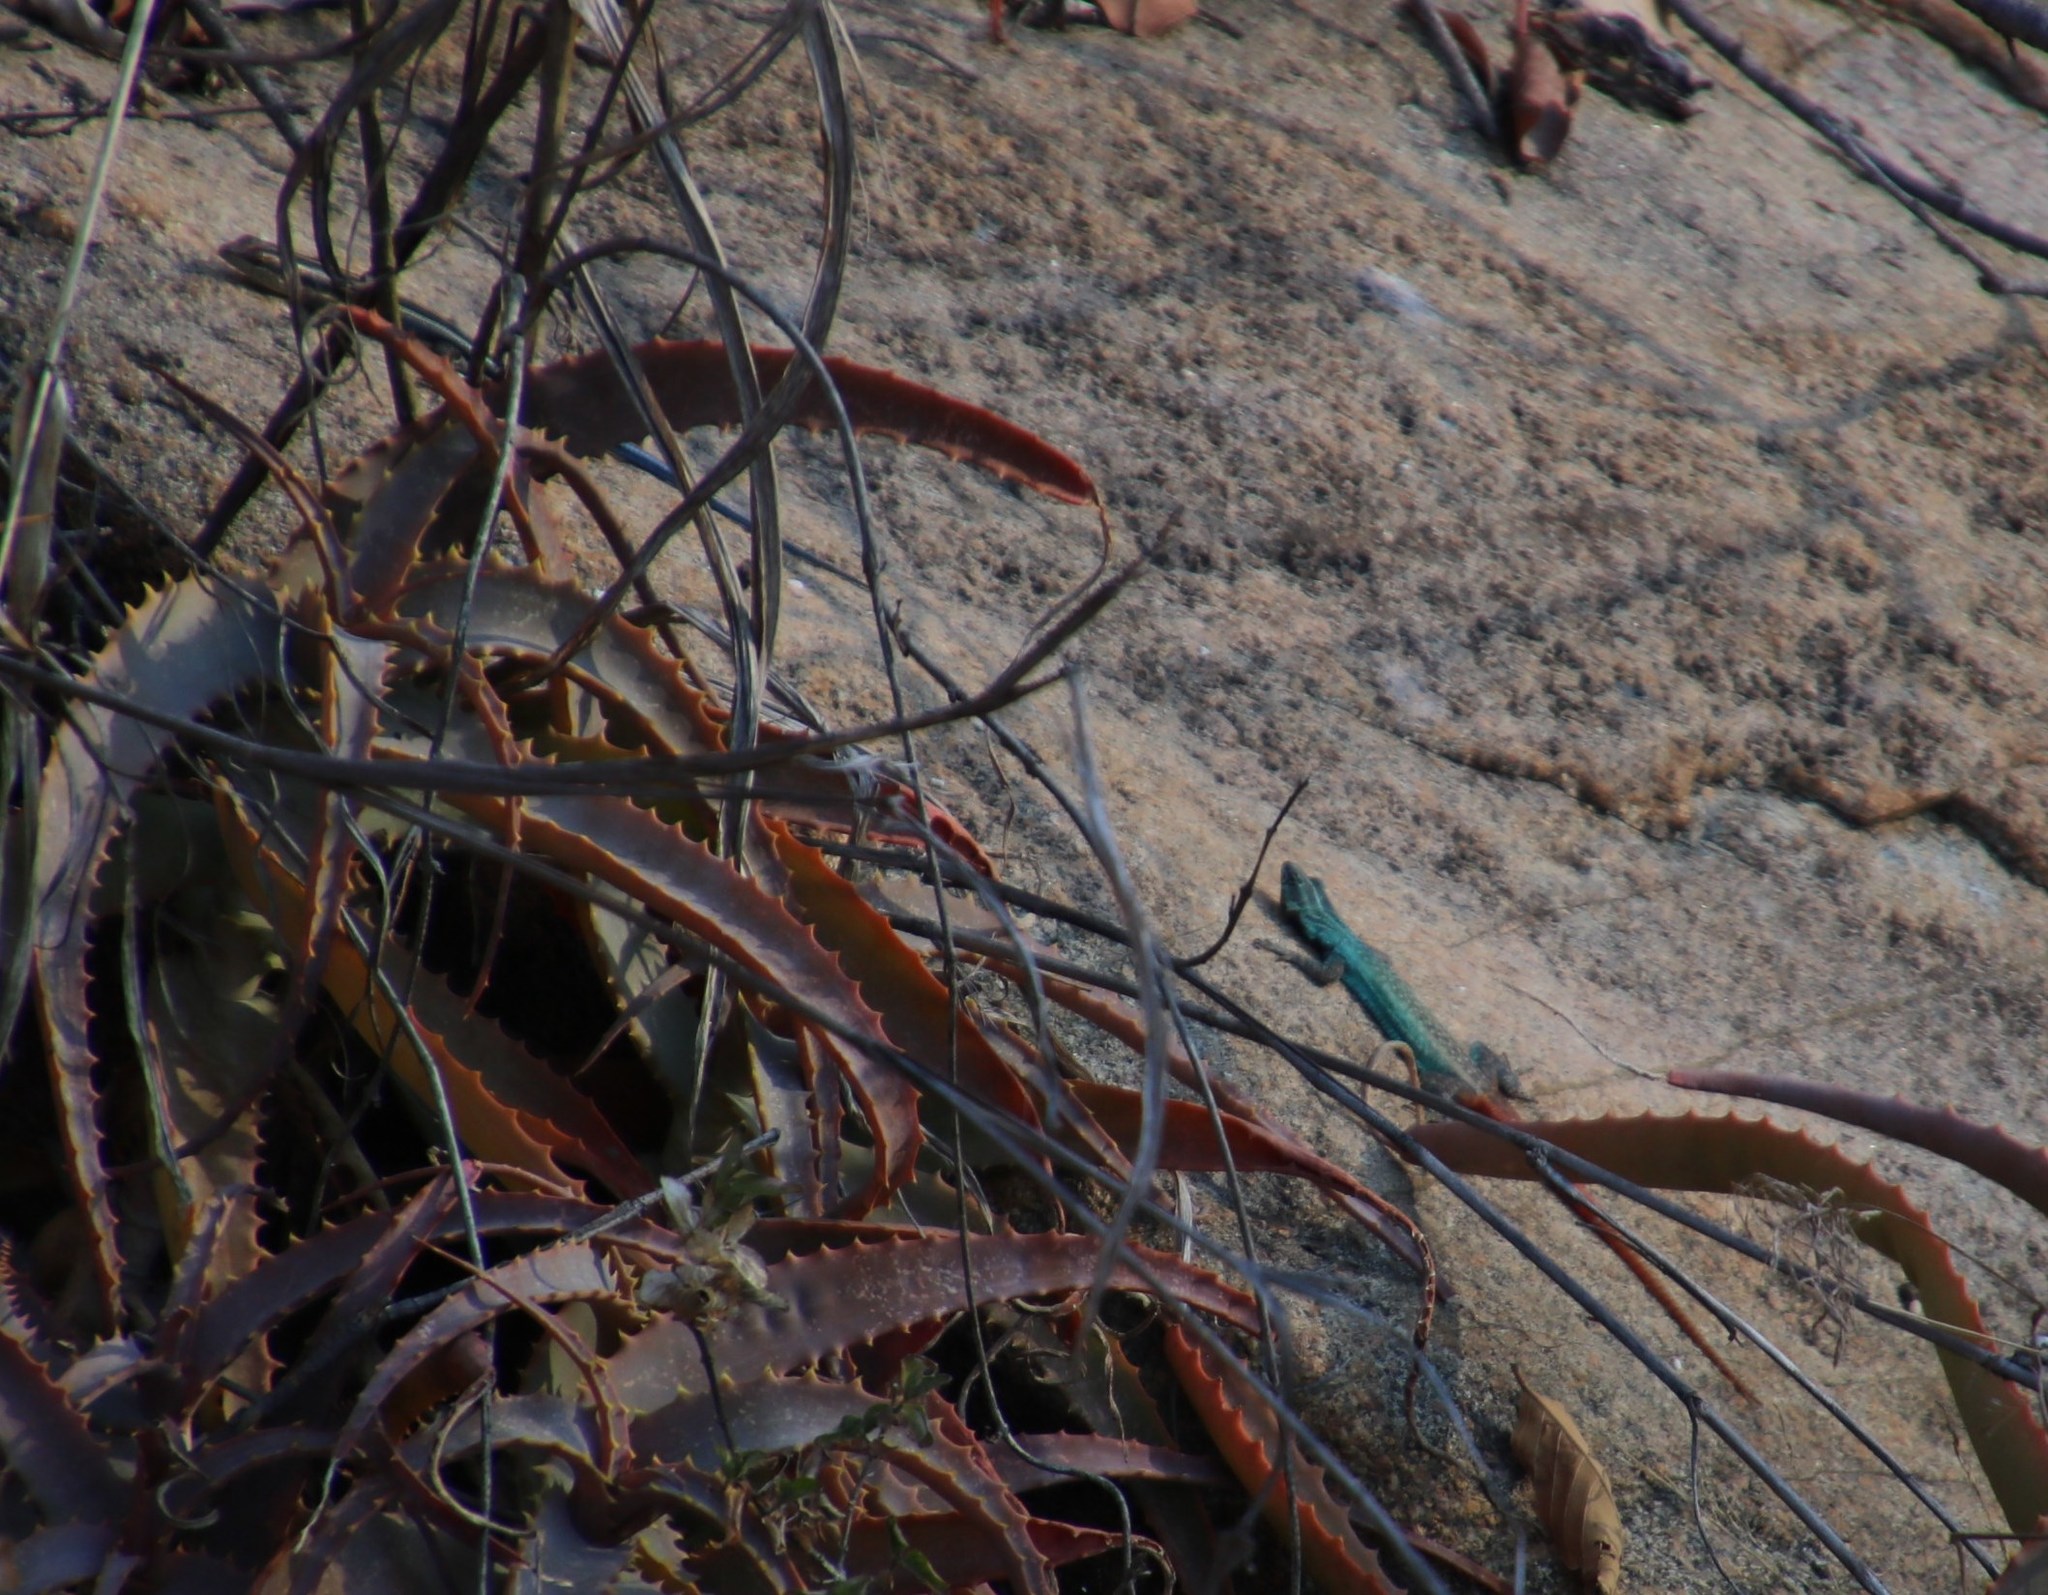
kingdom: Animalia
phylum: Chordata
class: Squamata
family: Cordylidae
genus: Platysaurus
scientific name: Platysaurus intermedius
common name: Common flat lizard
